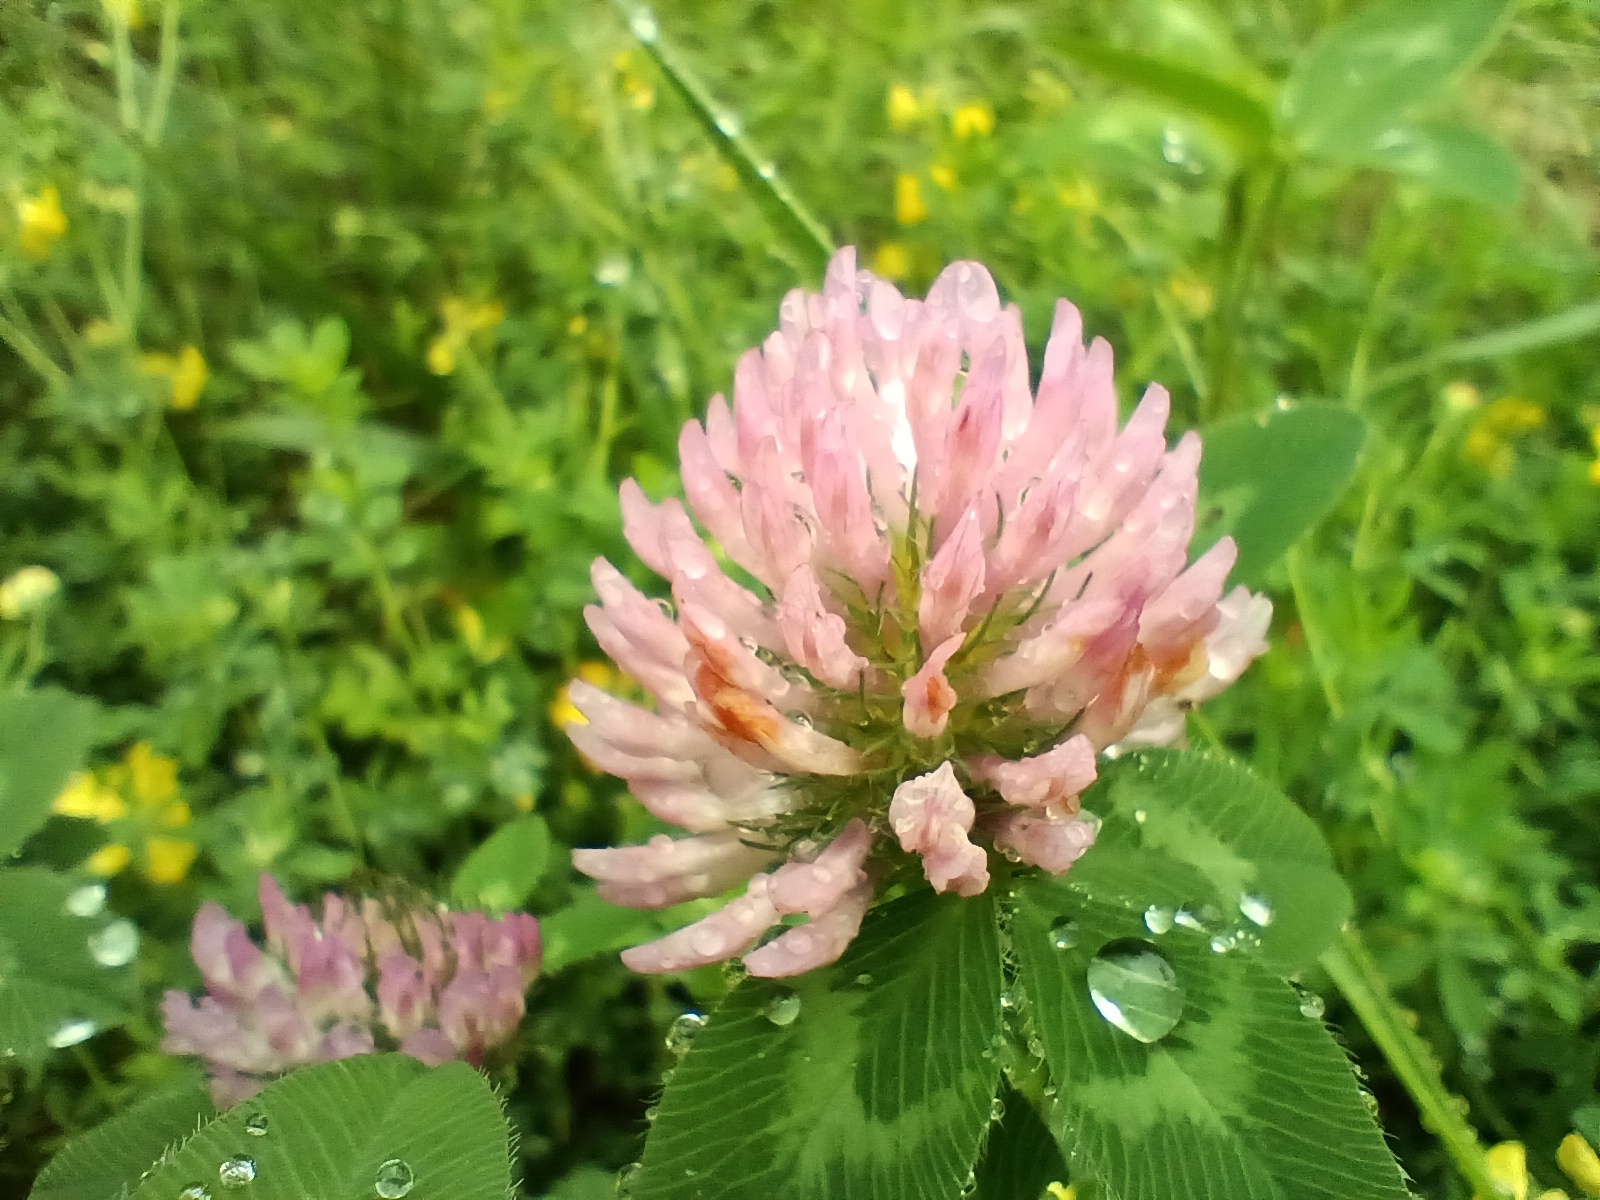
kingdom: Plantae
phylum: Tracheophyta
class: Magnoliopsida
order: Fabales
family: Fabaceae
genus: Trifolium
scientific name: Trifolium pratense
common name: Red clover
